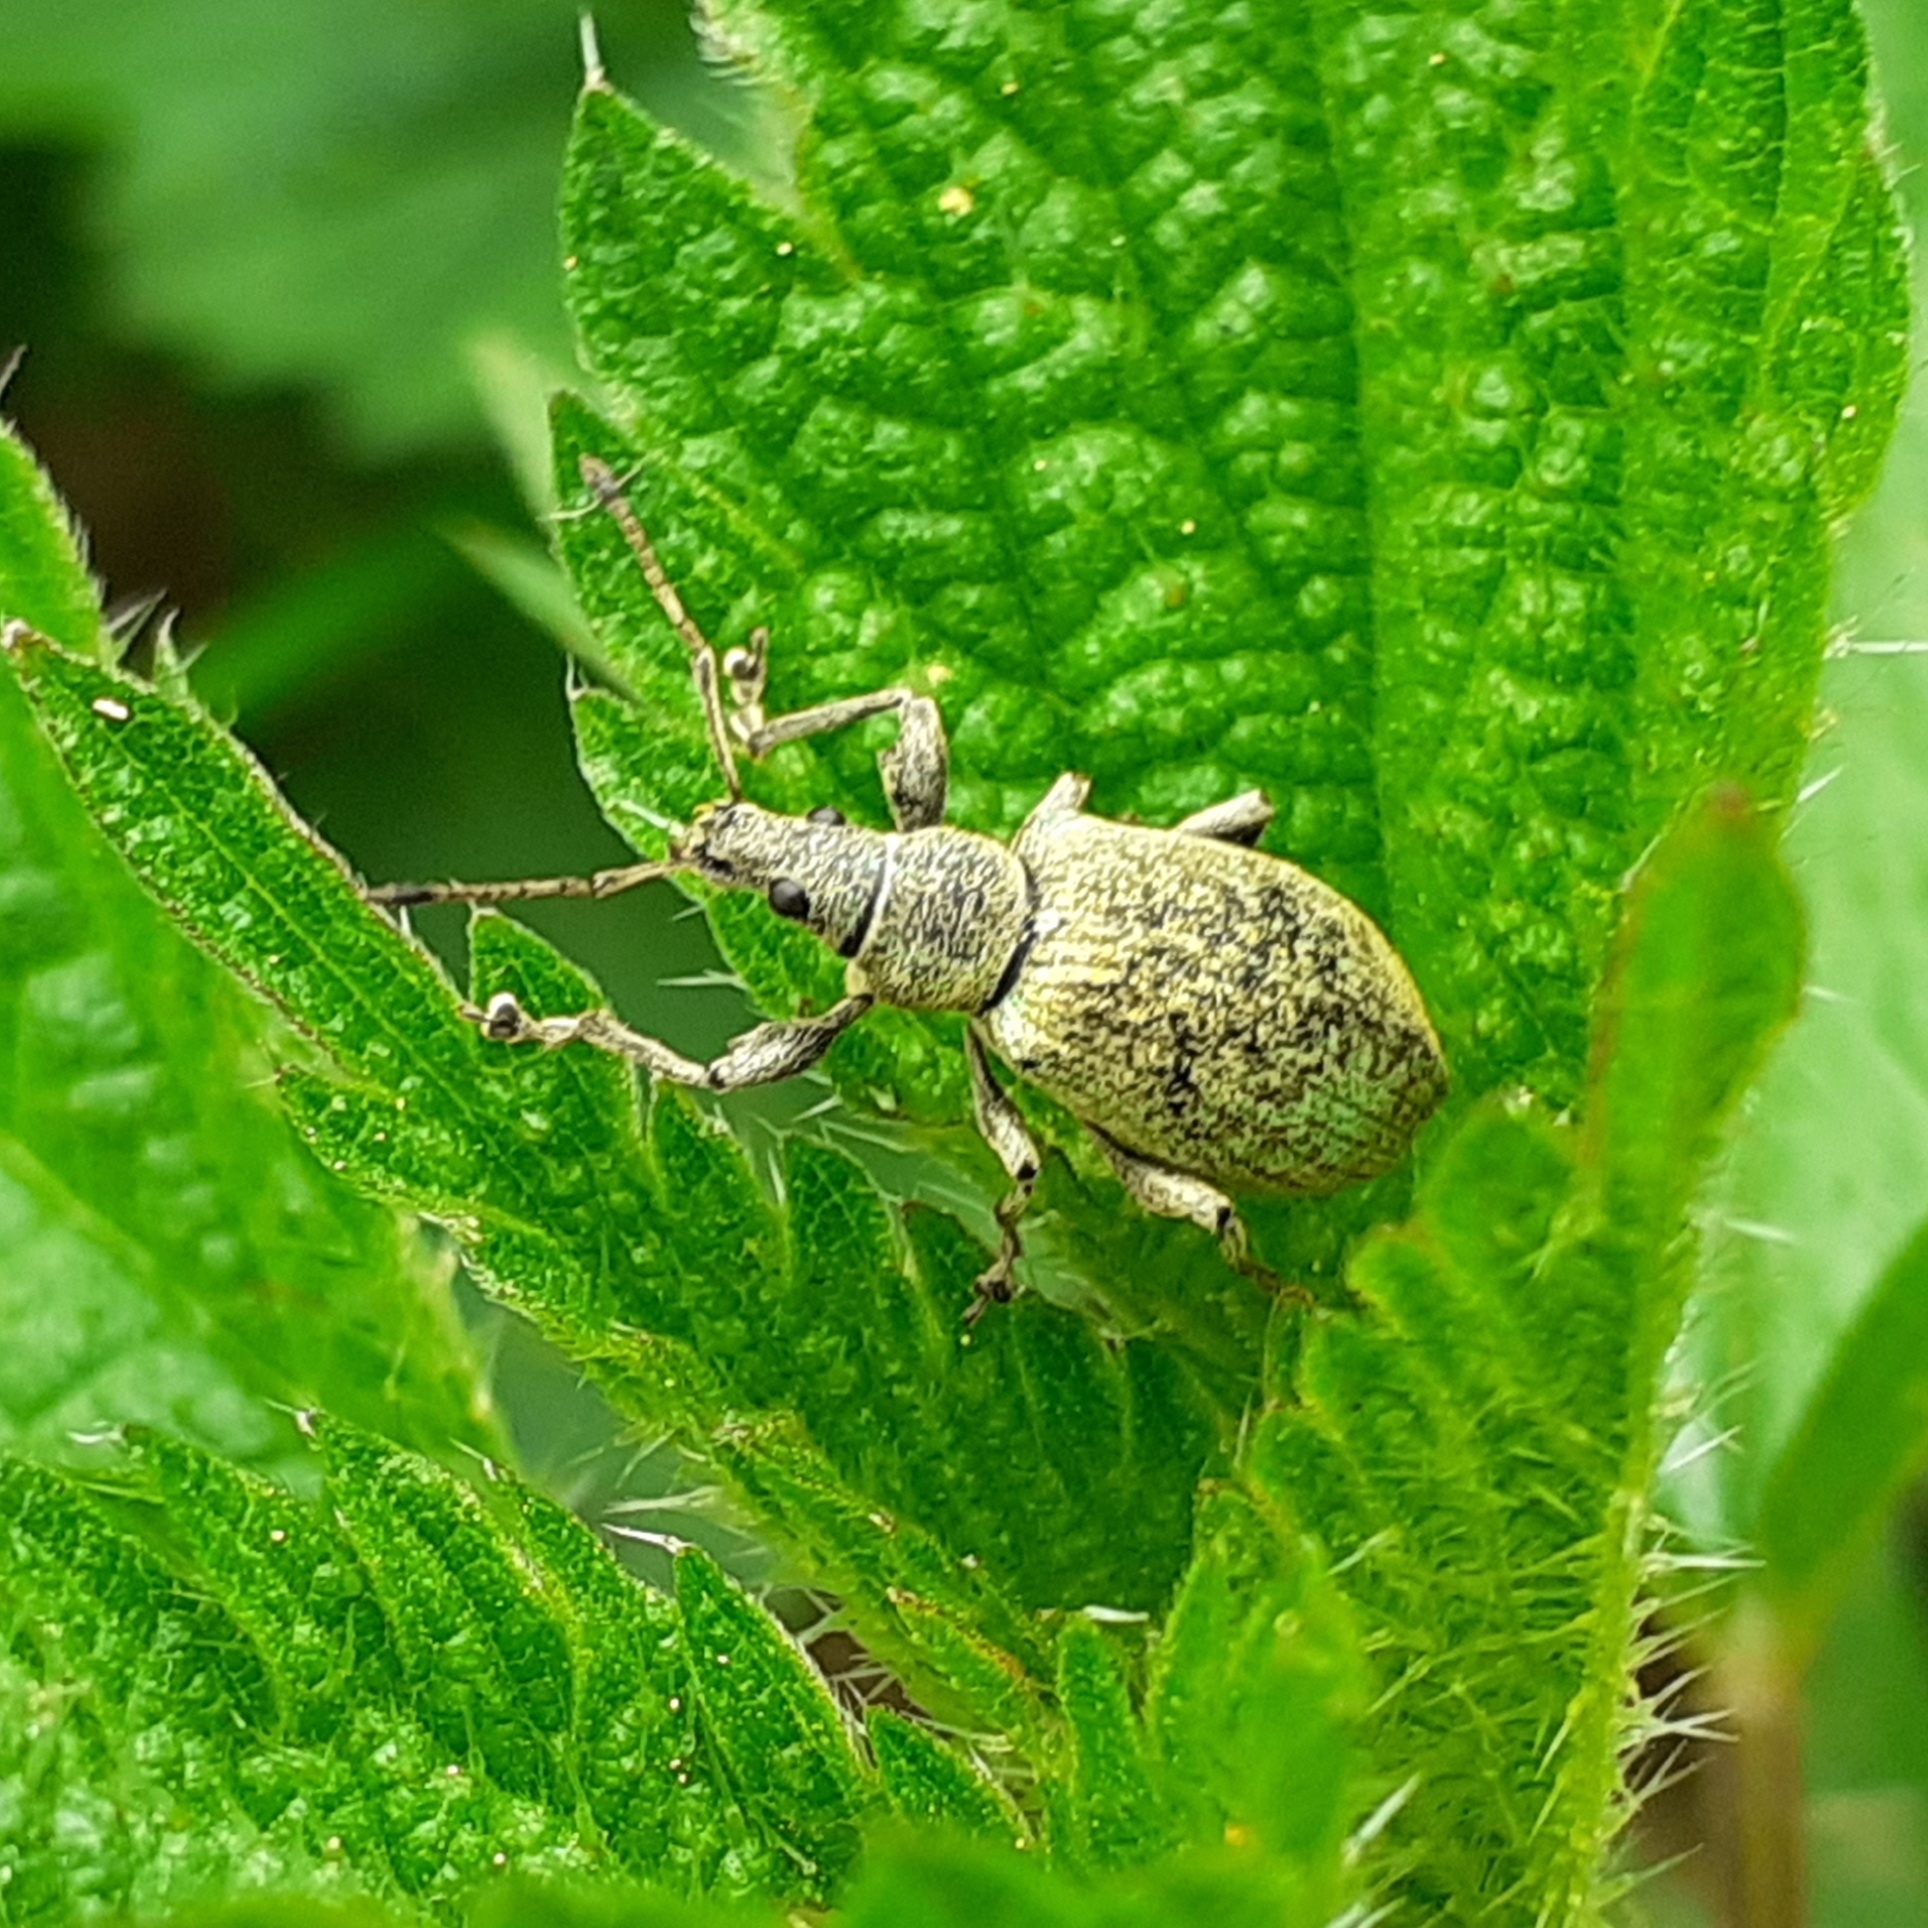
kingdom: Animalia
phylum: Arthropoda
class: Insecta
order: Coleoptera
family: Curculionidae
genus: Phyllobius
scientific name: Phyllobius pomaceus
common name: Green nettle weevil
